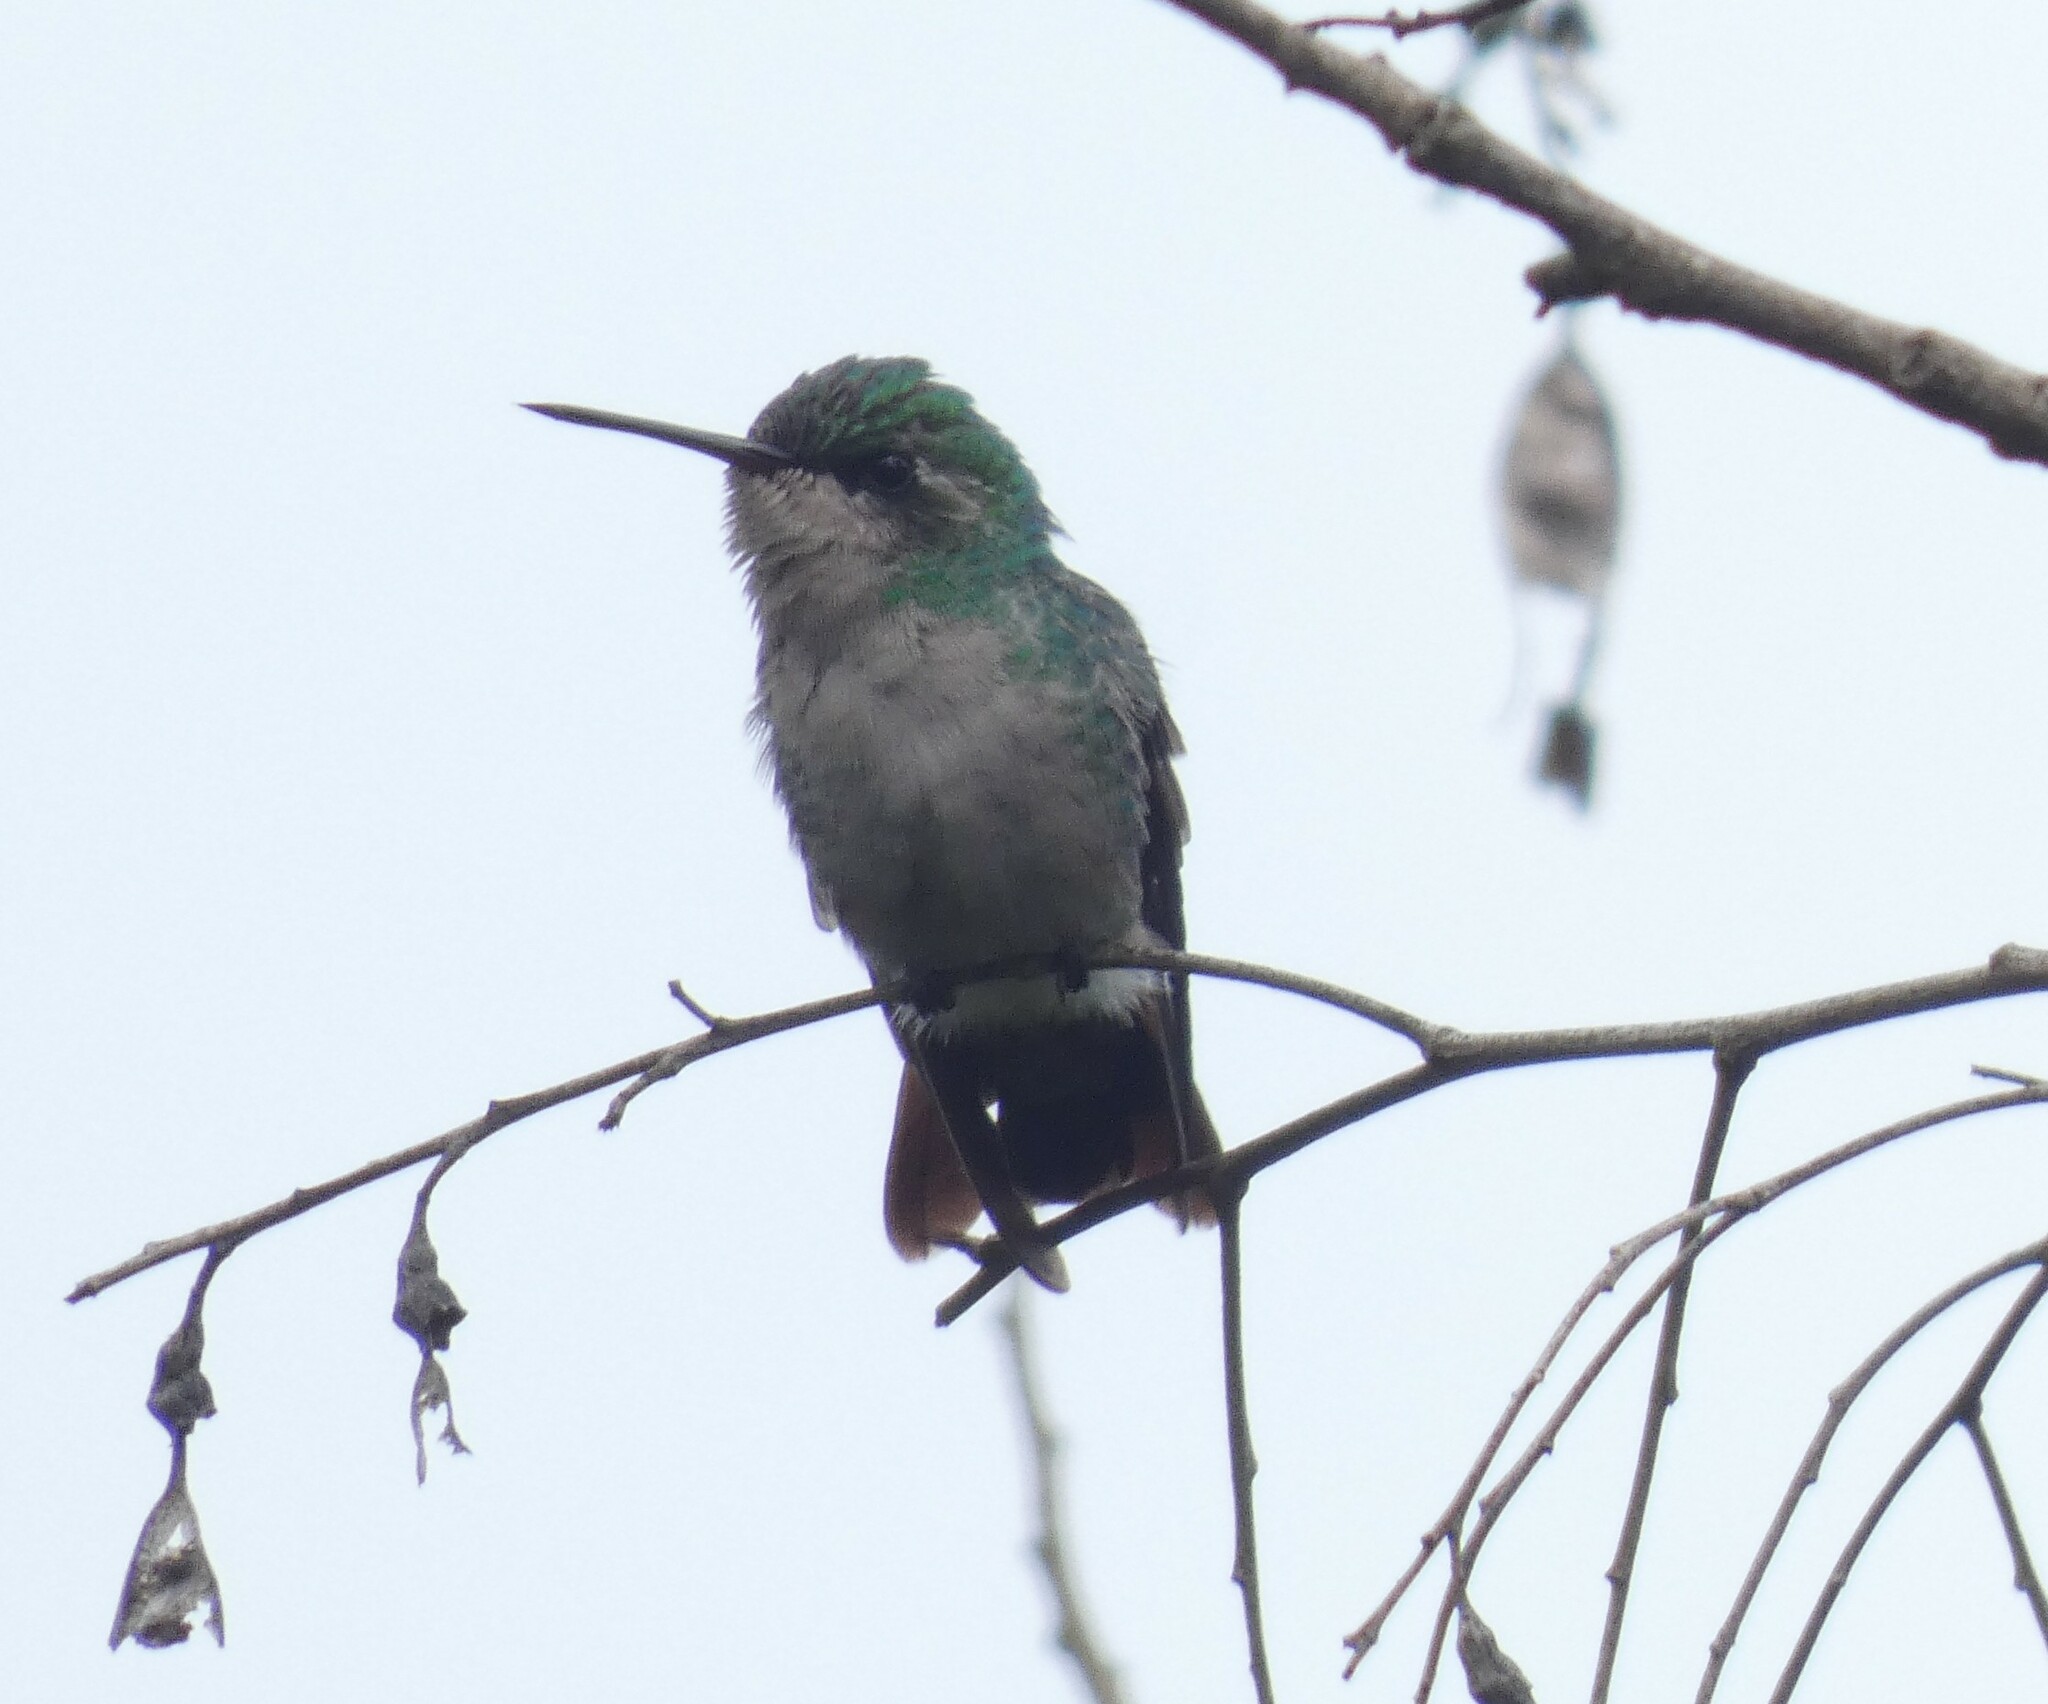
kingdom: Animalia
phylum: Chordata
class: Aves
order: Apodiformes
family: Trochilidae
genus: Chlorostilbon
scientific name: Chlorostilbon lucidus
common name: Glittering-bellied emerald
